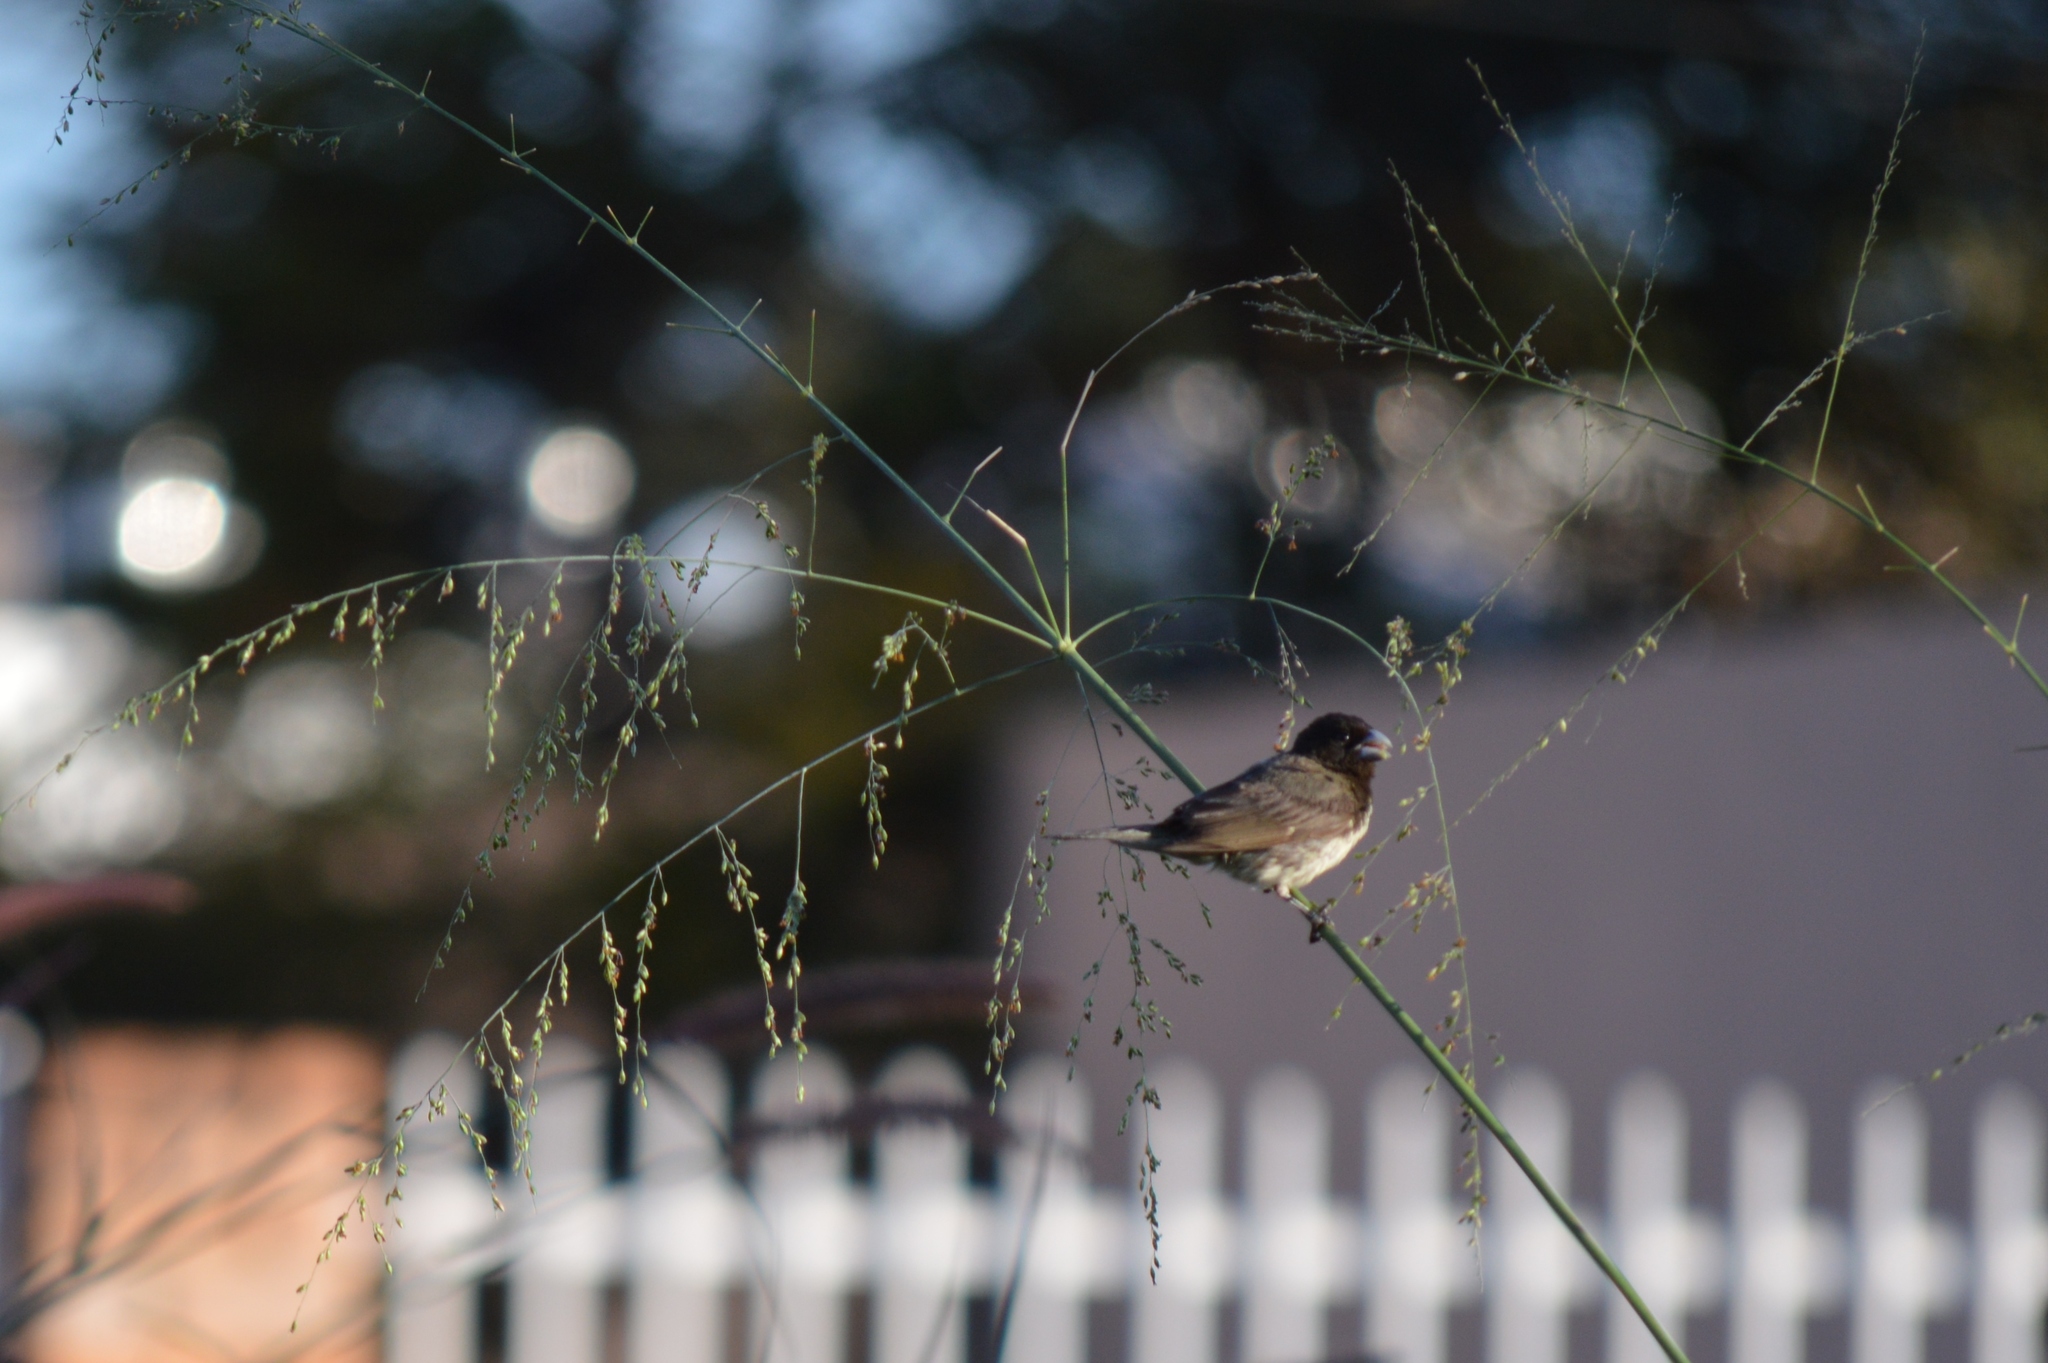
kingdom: Animalia
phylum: Chordata
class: Aves
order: Passeriformes
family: Thraupidae
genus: Sporophila
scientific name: Sporophila nigricollis
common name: Yellow-bellied seedeater
